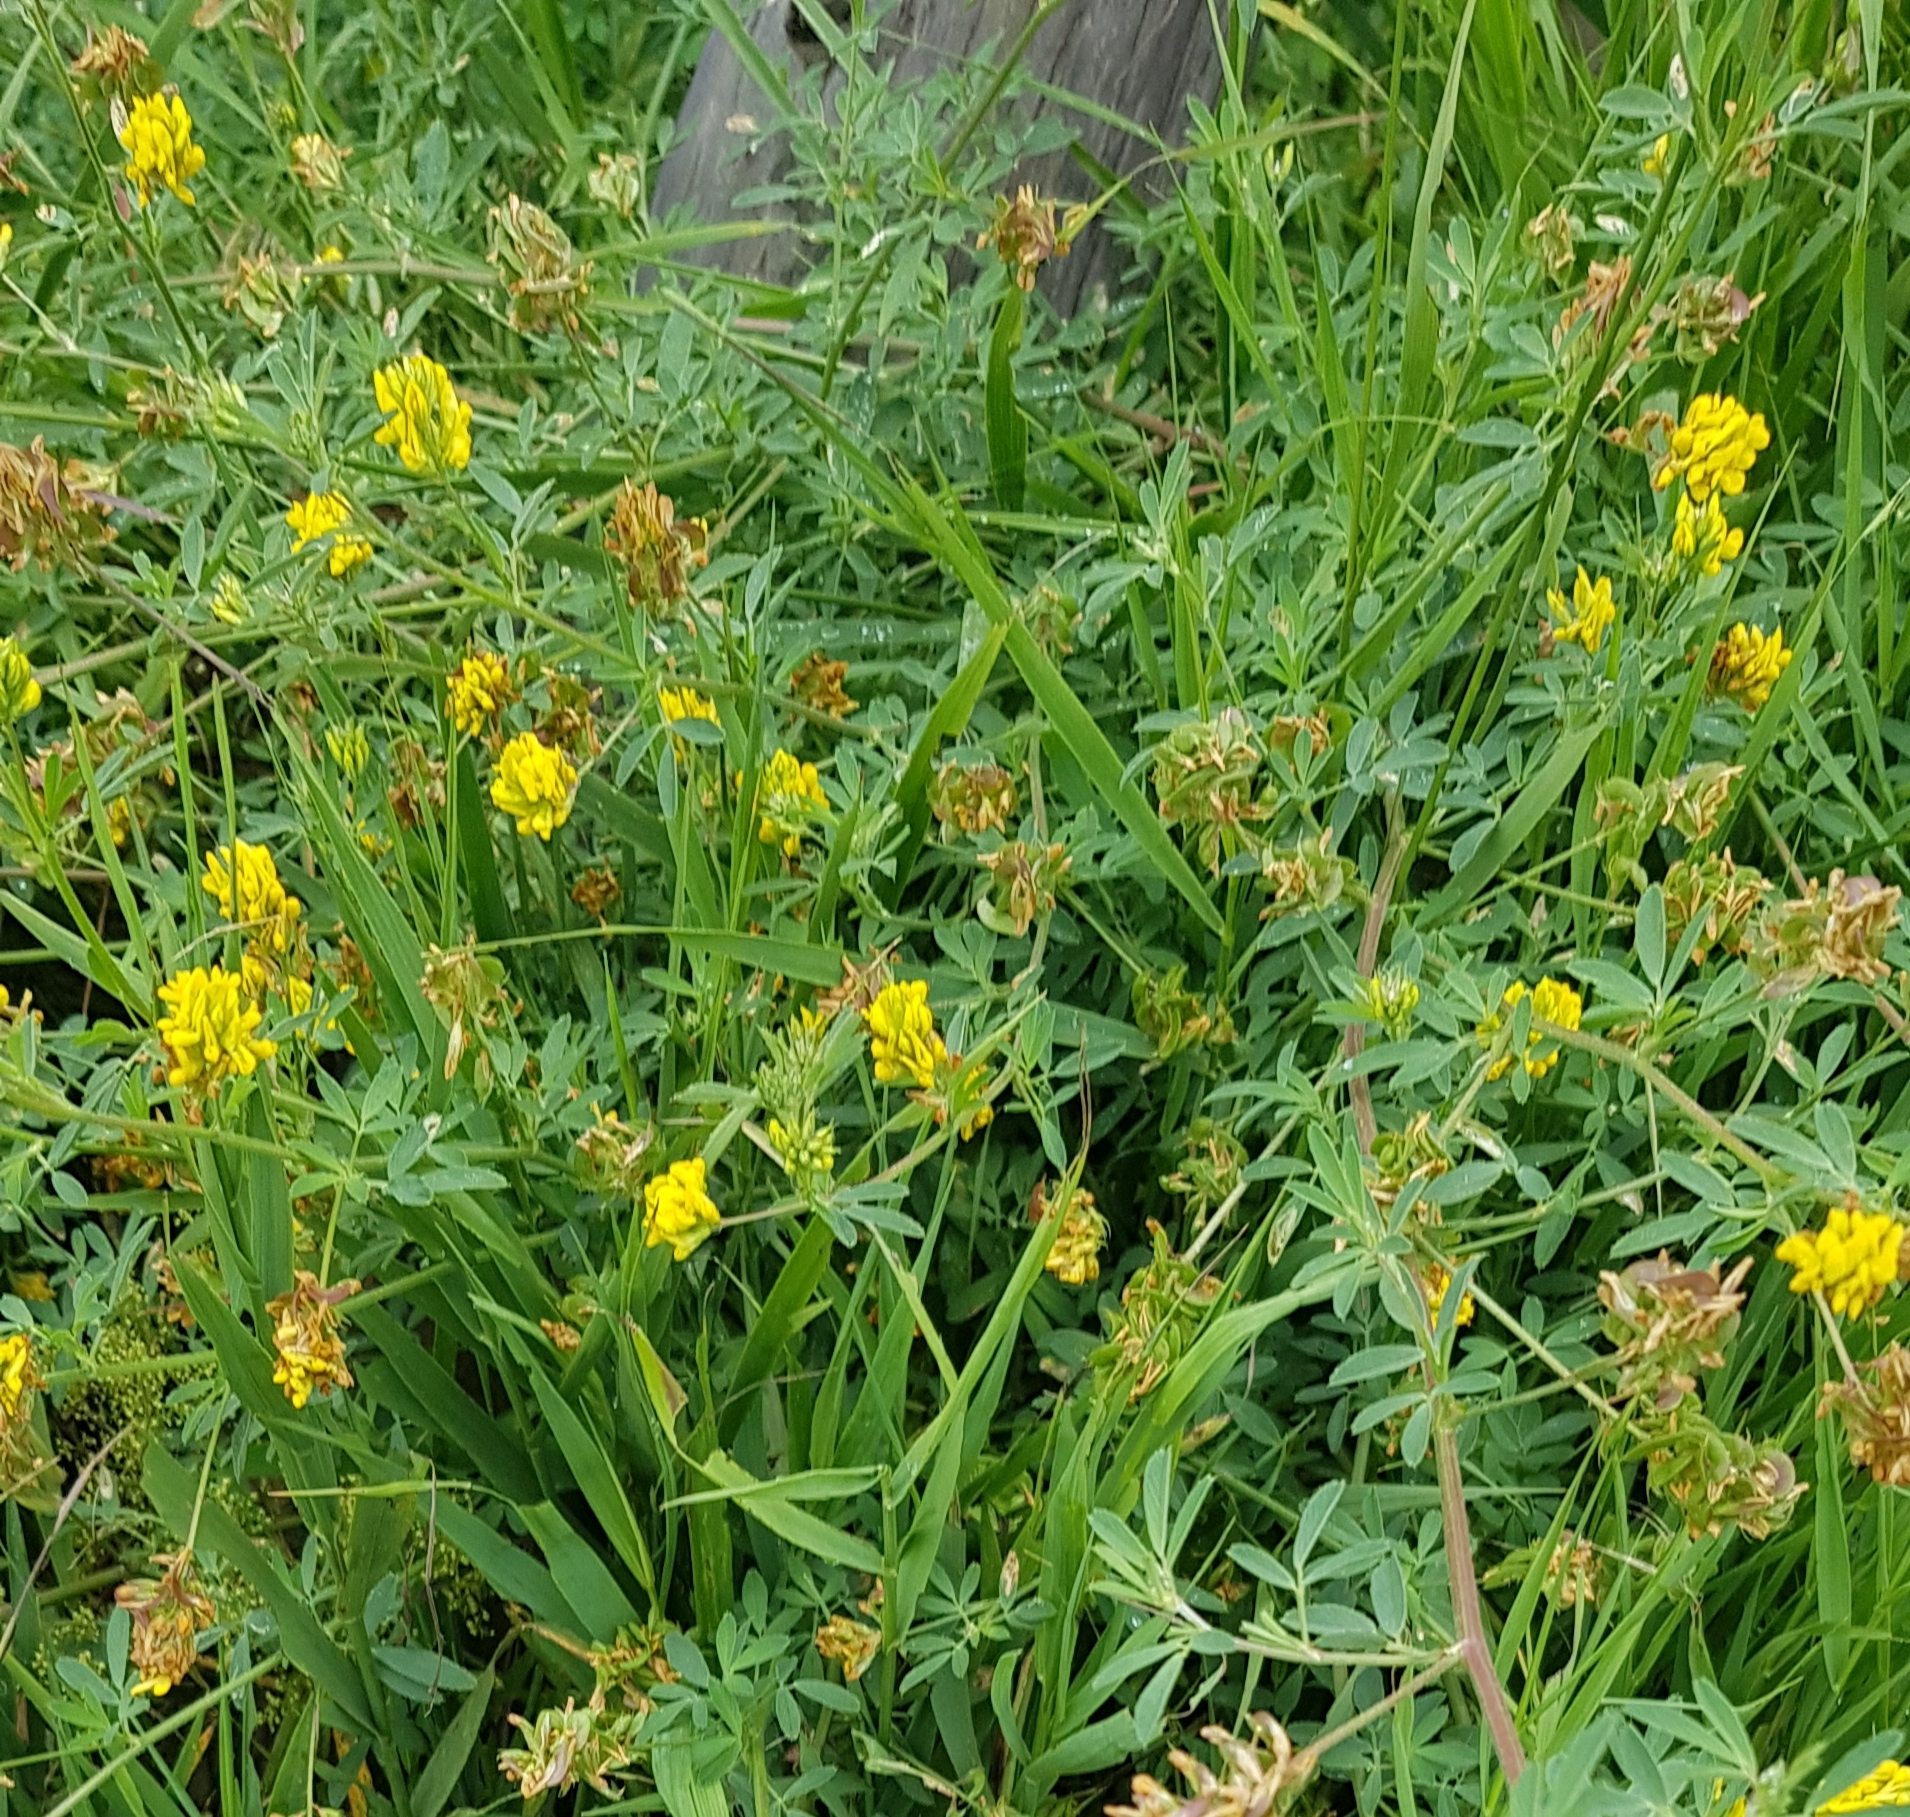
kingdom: Plantae
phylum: Tracheophyta
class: Magnoliopsida
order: Fabales
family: Fabaceae
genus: Medicago
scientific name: Medicago falcata
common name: Sickle medick
